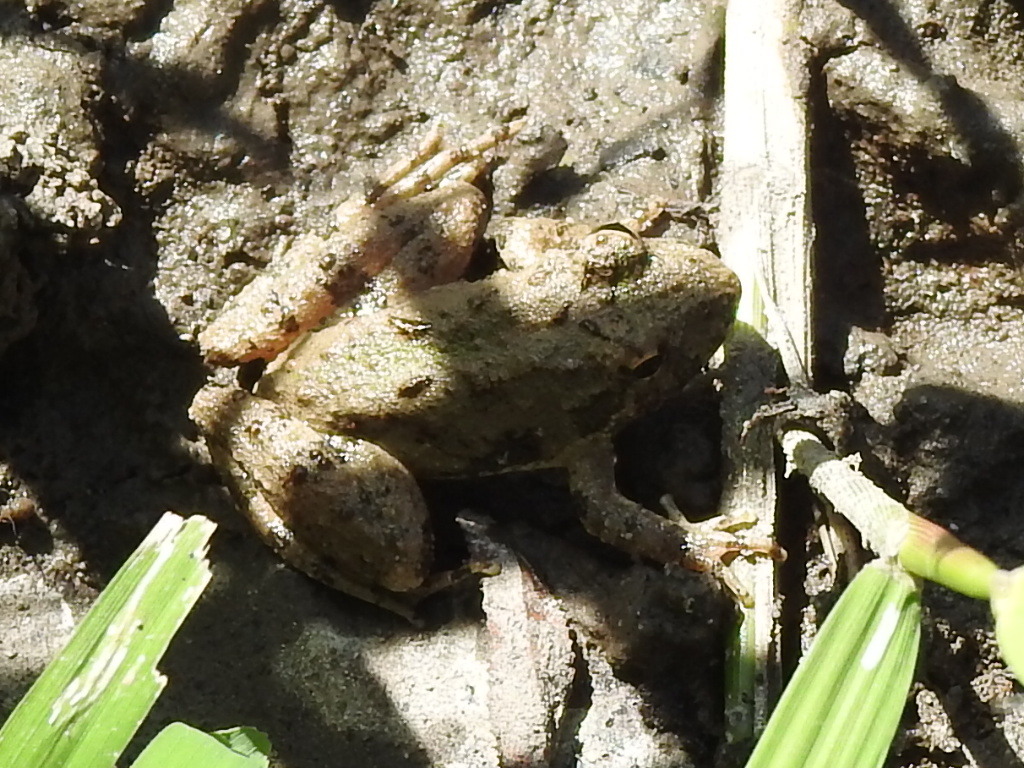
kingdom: Animalia
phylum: Chordata
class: Amphibia
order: Anura
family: Hylidae
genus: Acris
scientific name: Acris blanchardi
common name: Blanchard's cricket frog
